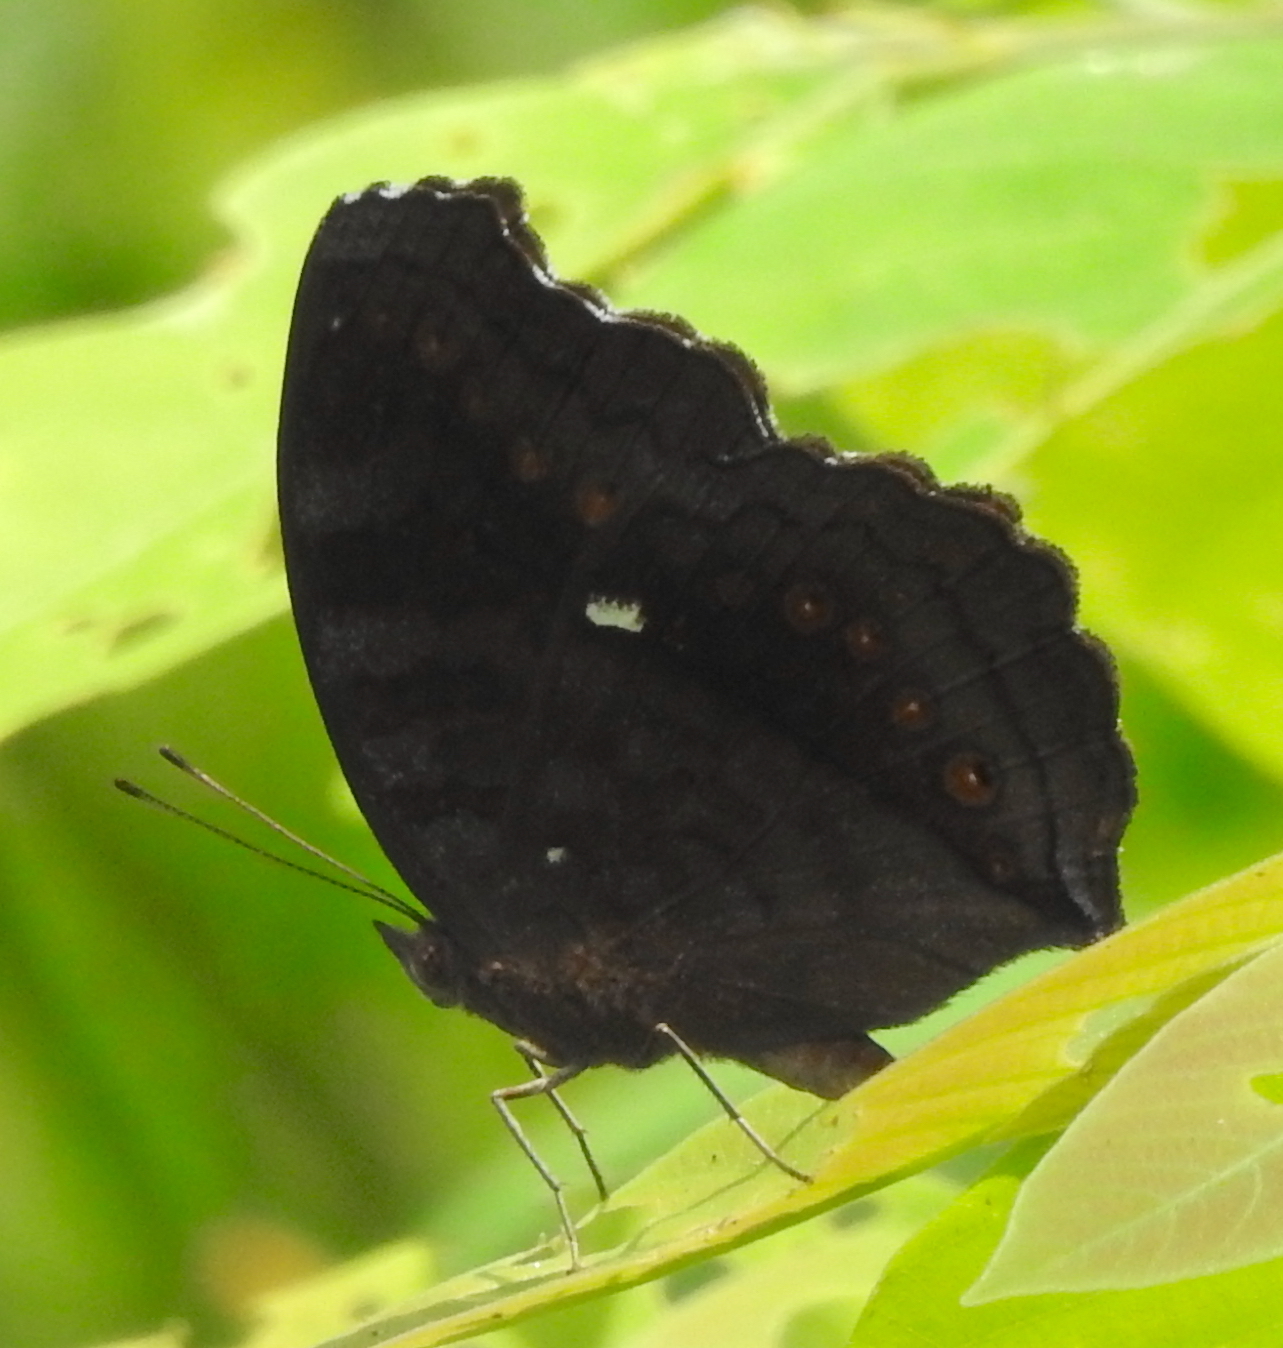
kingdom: Animalia
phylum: Arthropoda
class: Insecta
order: Lepidoptera
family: Nymphalidae
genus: Junonia
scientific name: Junonia hedonia
